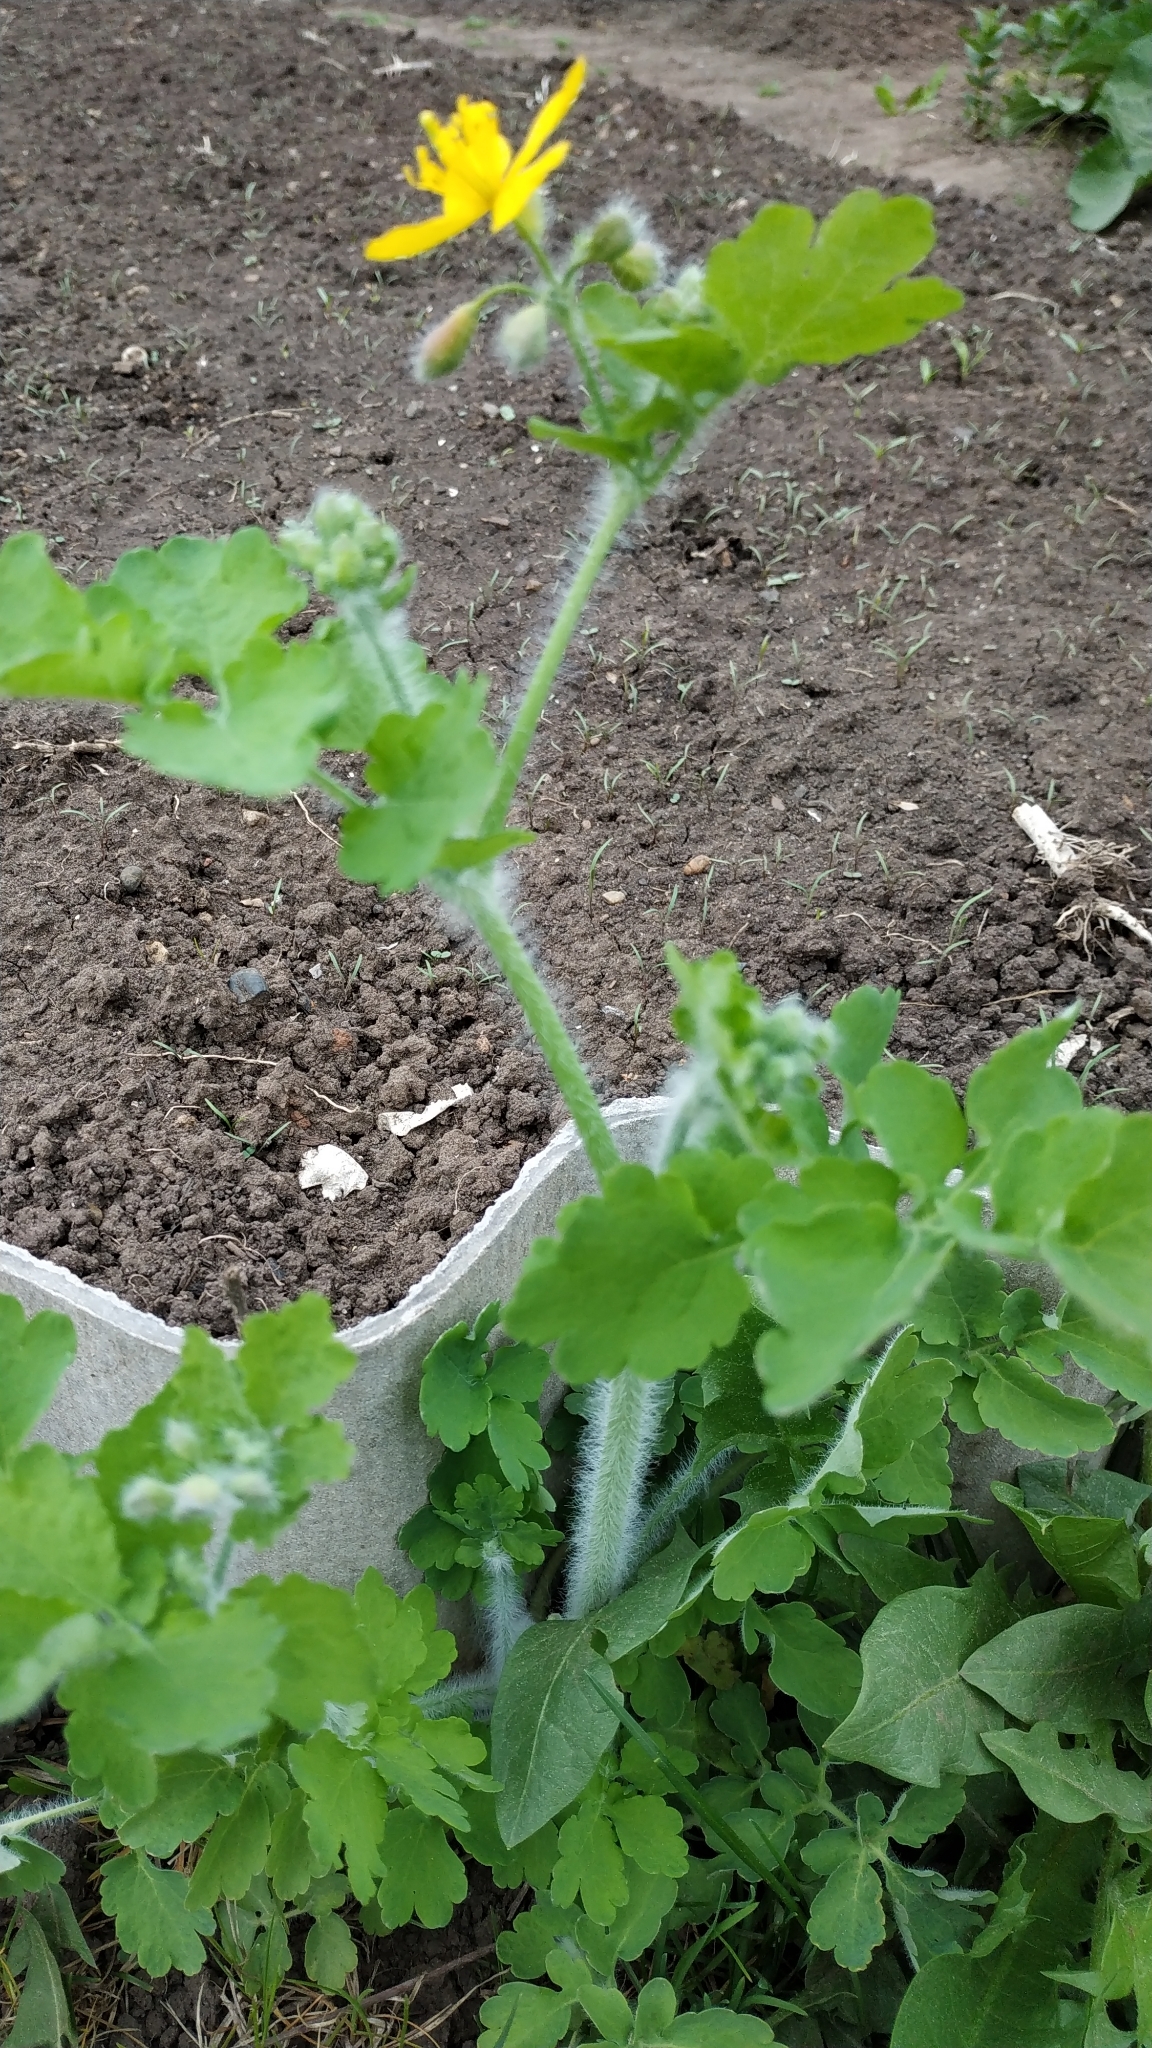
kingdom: Plantae
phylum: Tracheophyta
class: Magnoliopsida
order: Ranunculales
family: Papaveraceae
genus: Chelidonium
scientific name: Chelidonium majus
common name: Greater celandine
